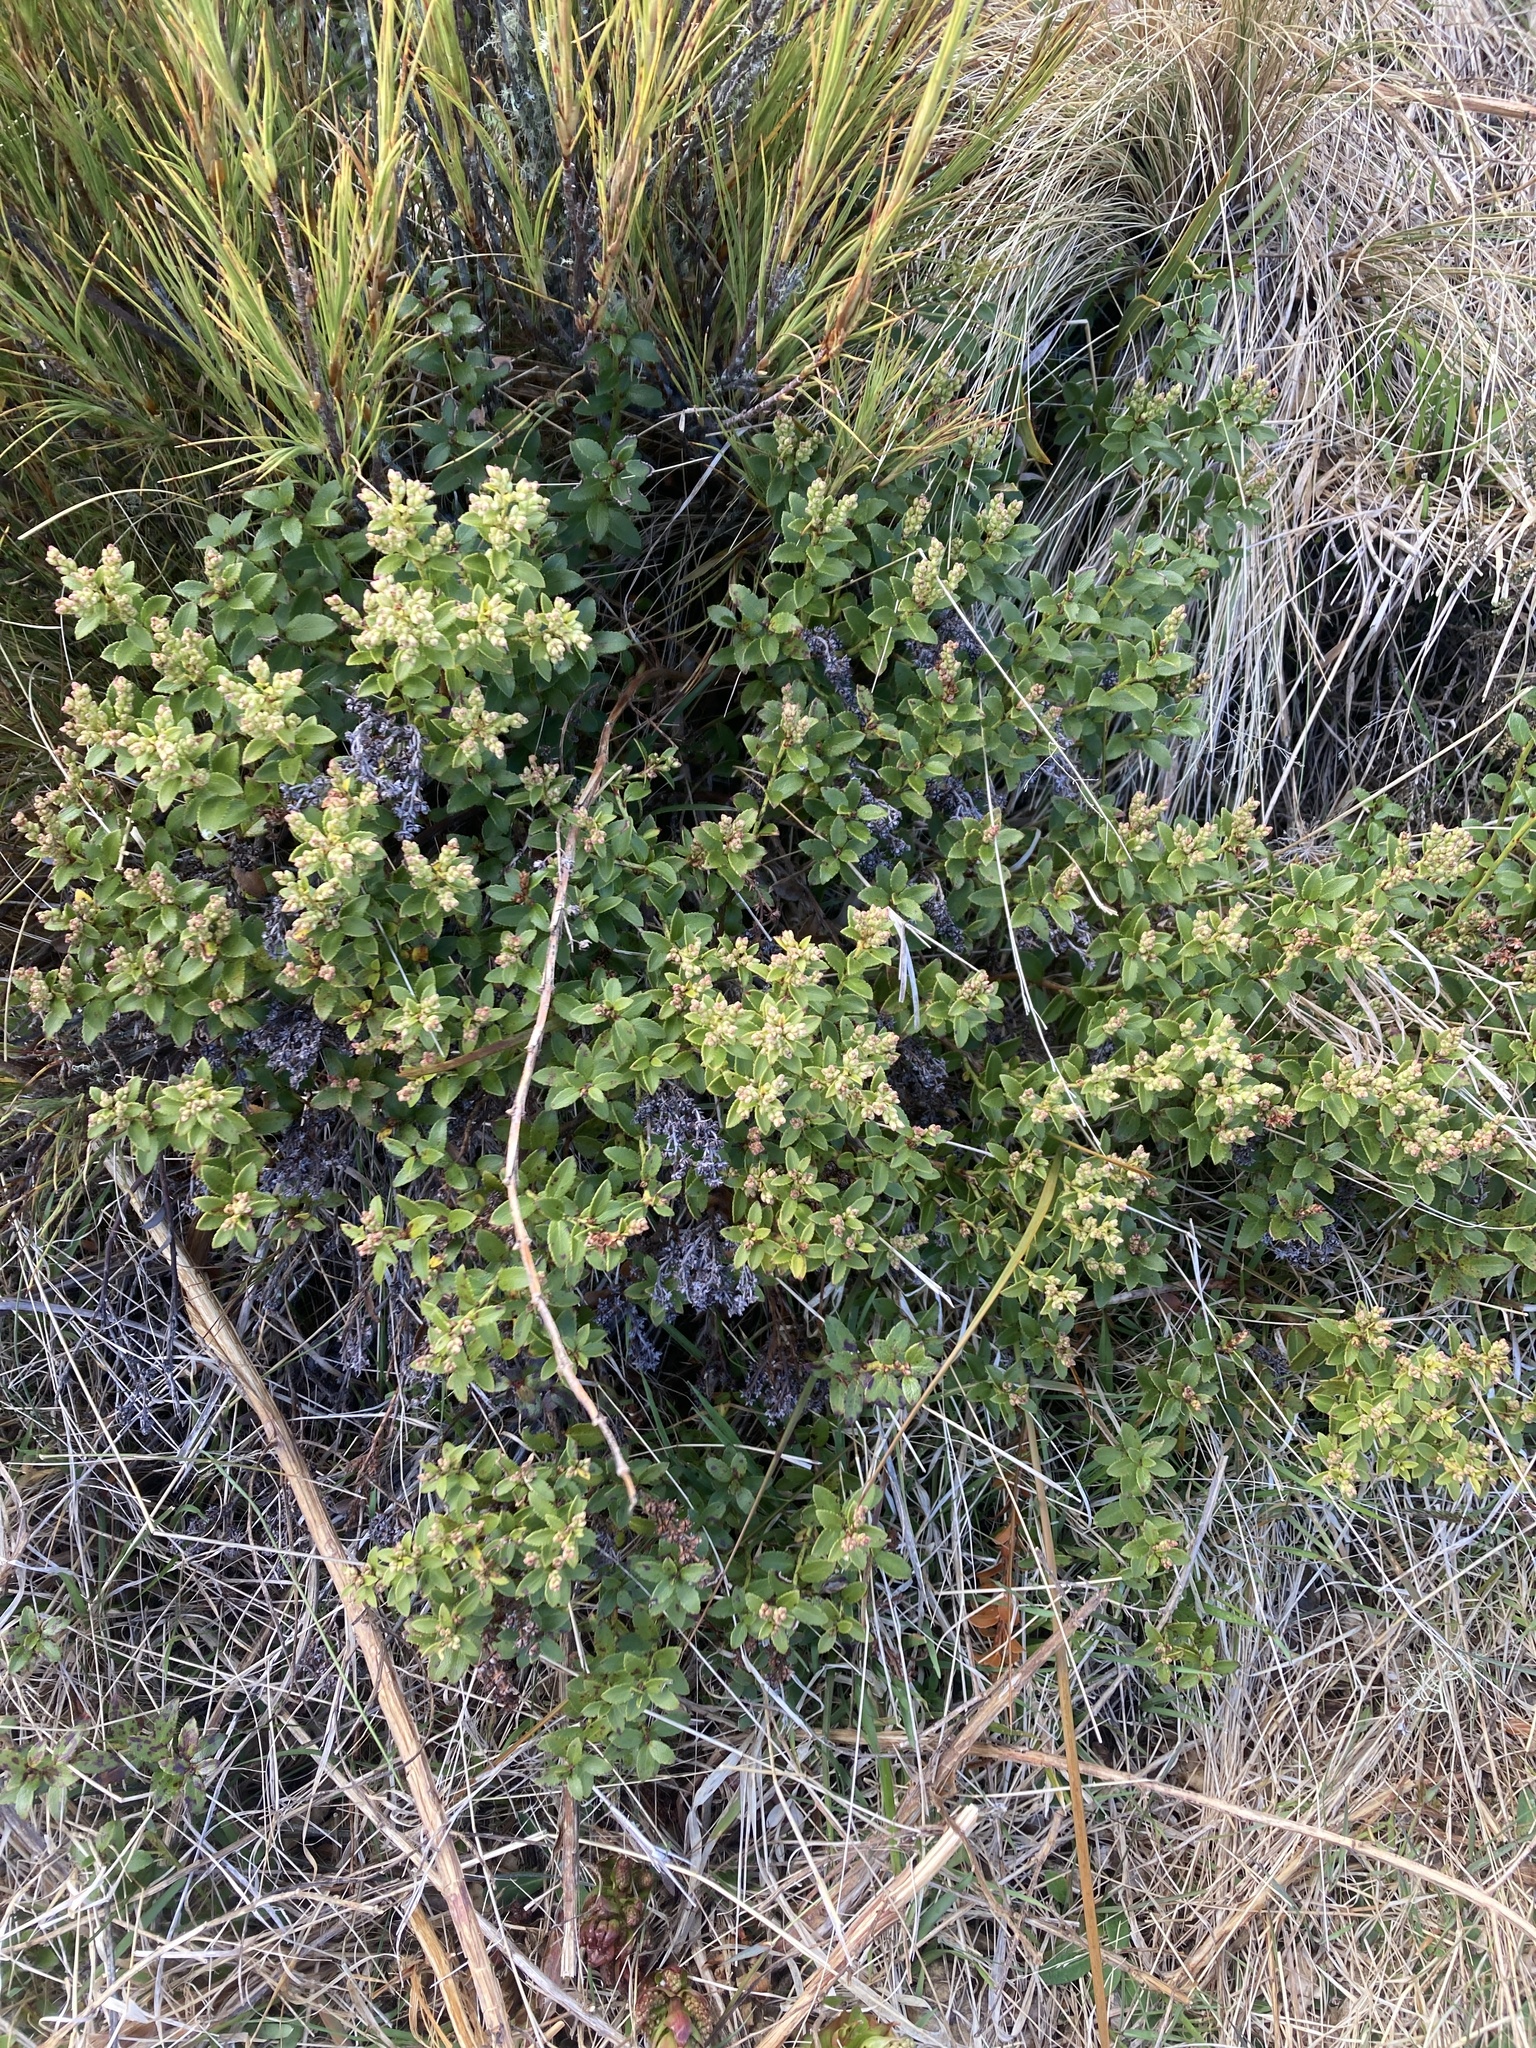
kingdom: Plantae
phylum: Tracheophyta
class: Magnoliopsida
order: Ericales
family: Ericaceae
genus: Gaultheria
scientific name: Gaultheria crassa
